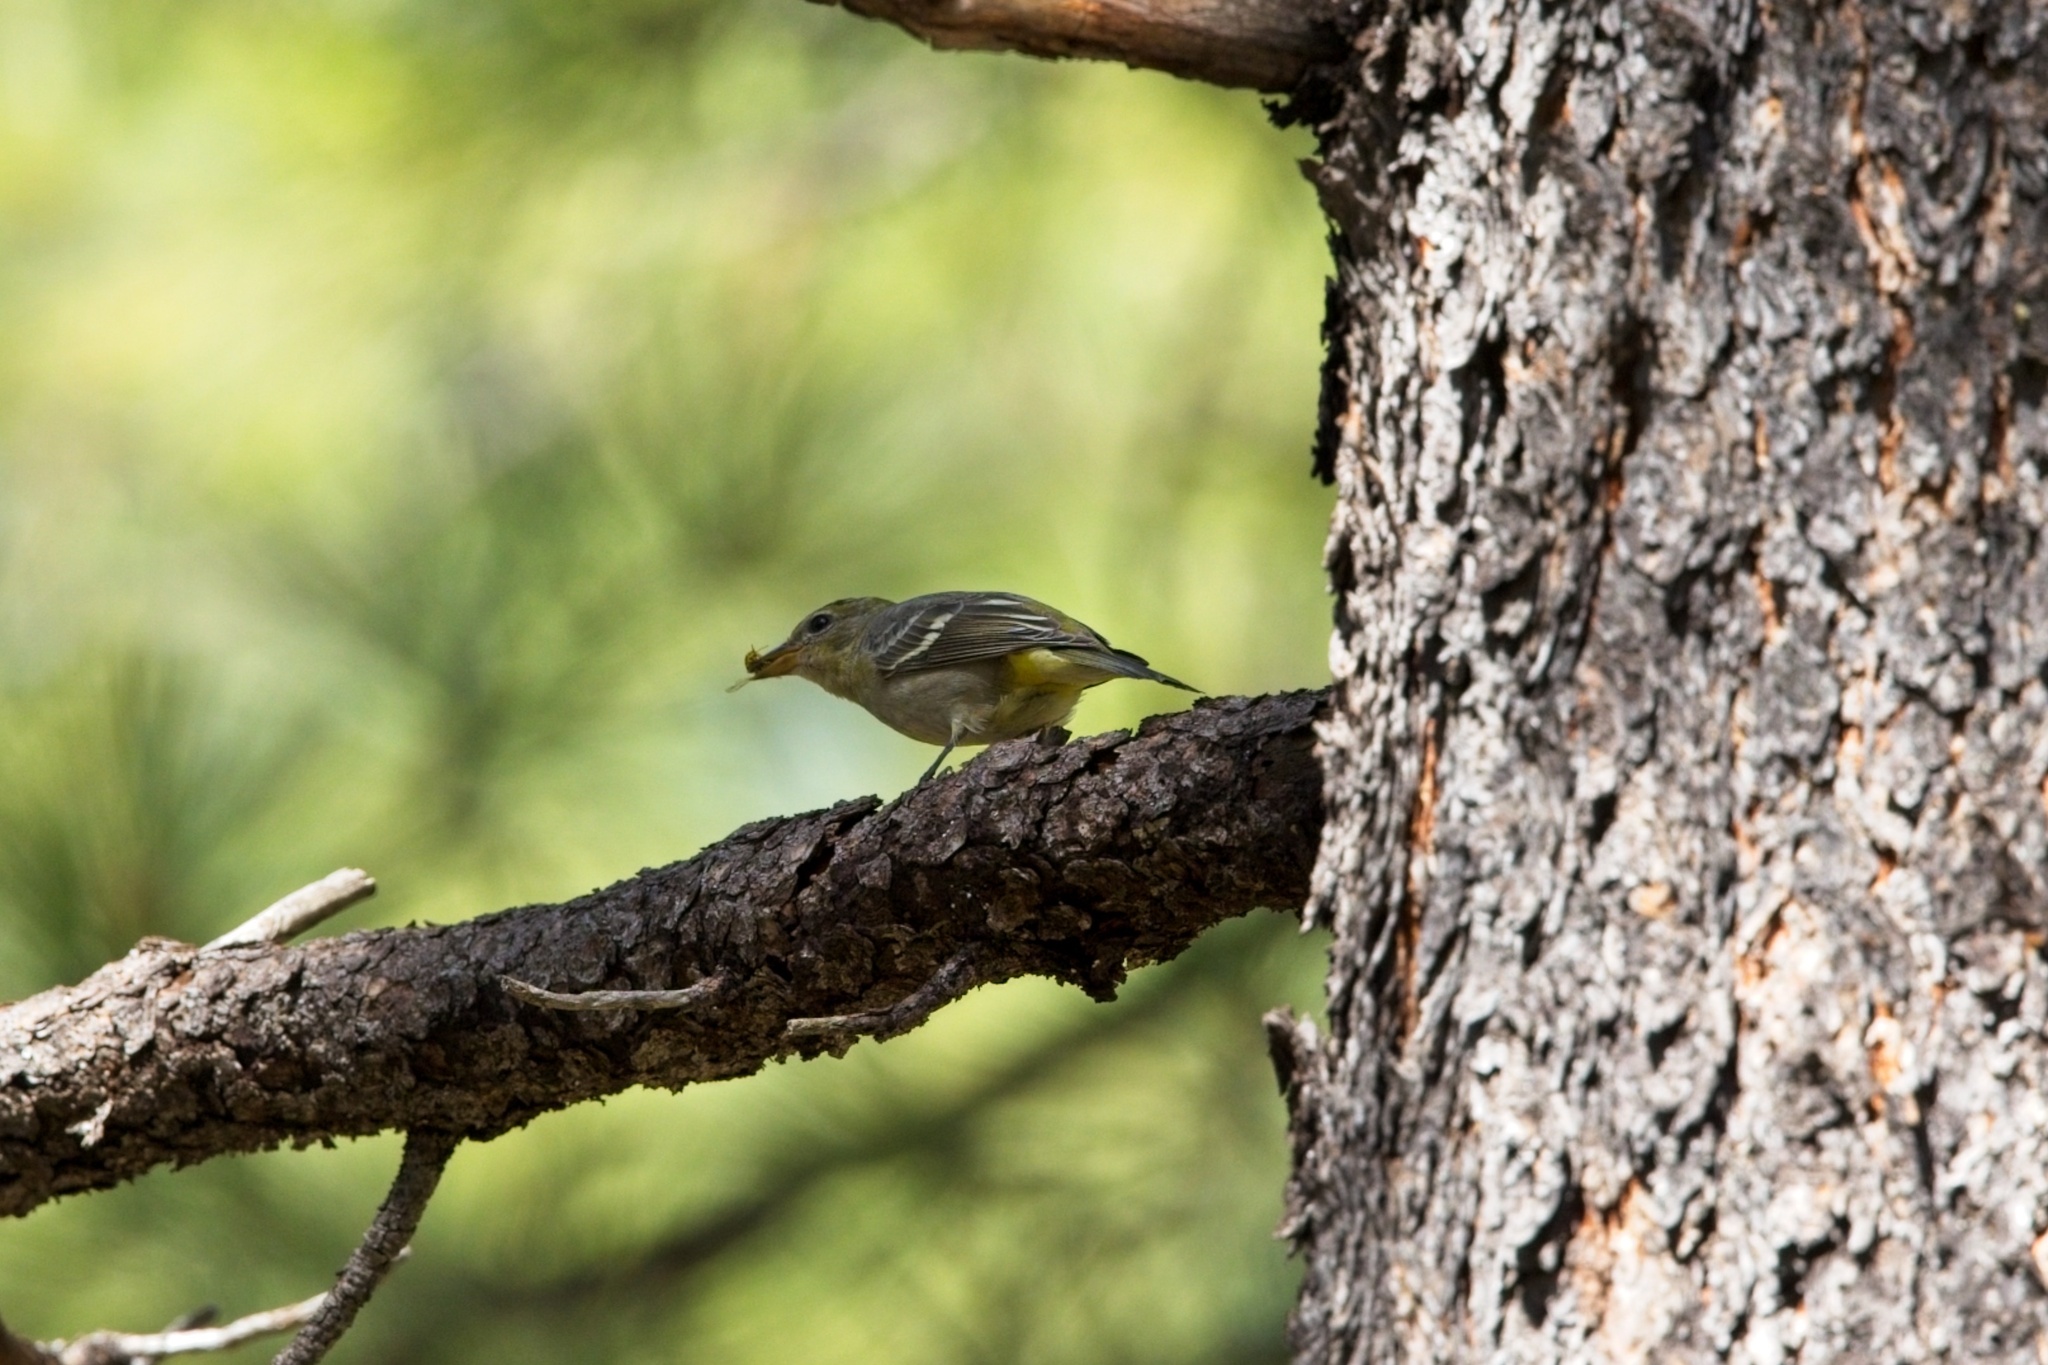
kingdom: Animalia
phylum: Chordata
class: Aves
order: Passeriformes
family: Cardinalidae
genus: Piranga
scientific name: Piranga ludoviciana
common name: Western tanager
